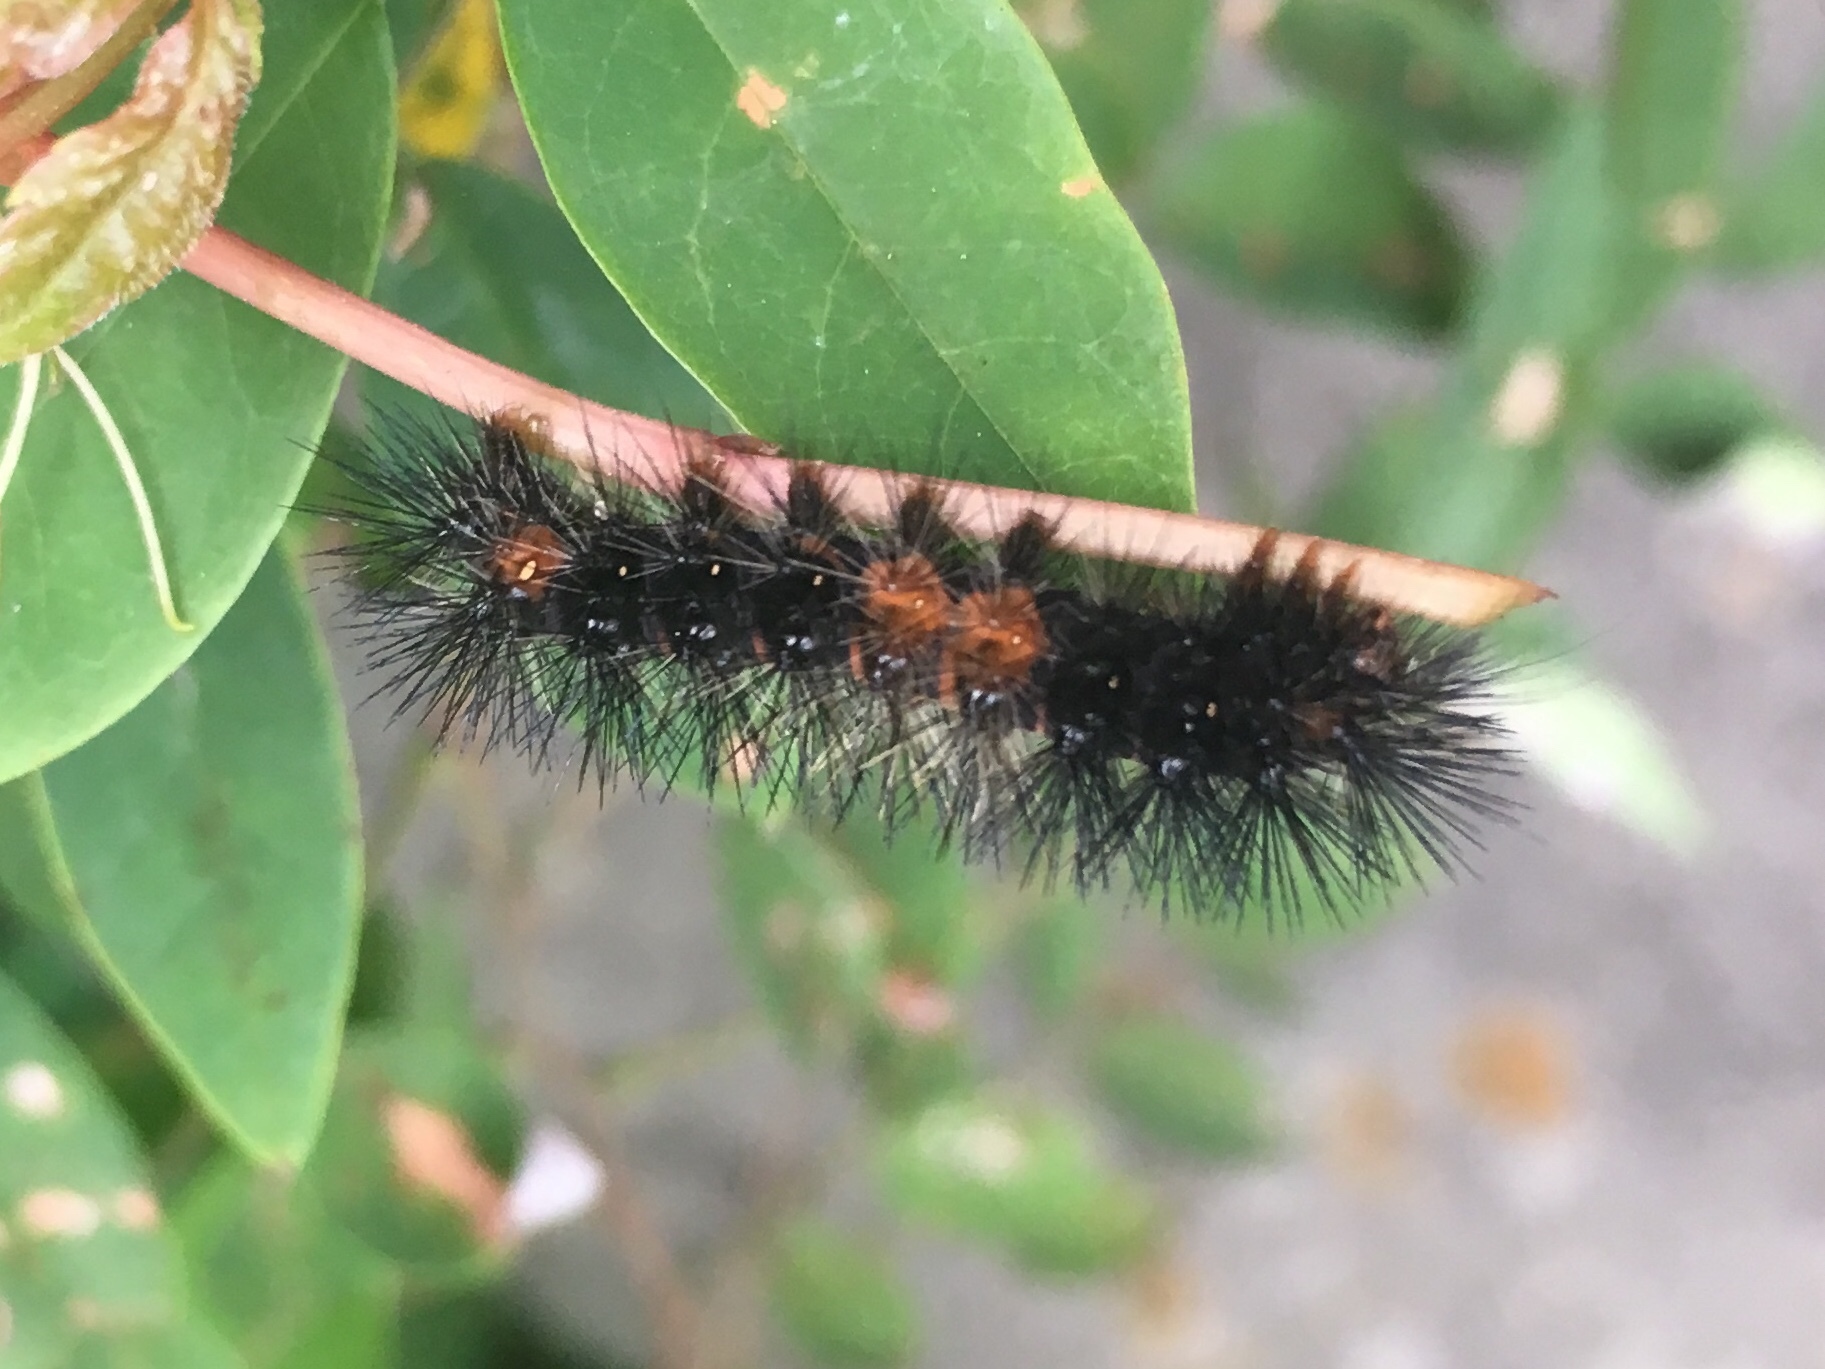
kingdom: Animalia
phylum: Arthropoda
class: Insecta
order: Lepidoptera
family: Erebidae
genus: Hypercompe
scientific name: Hypercompe scribonia
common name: Giant leopard moth
